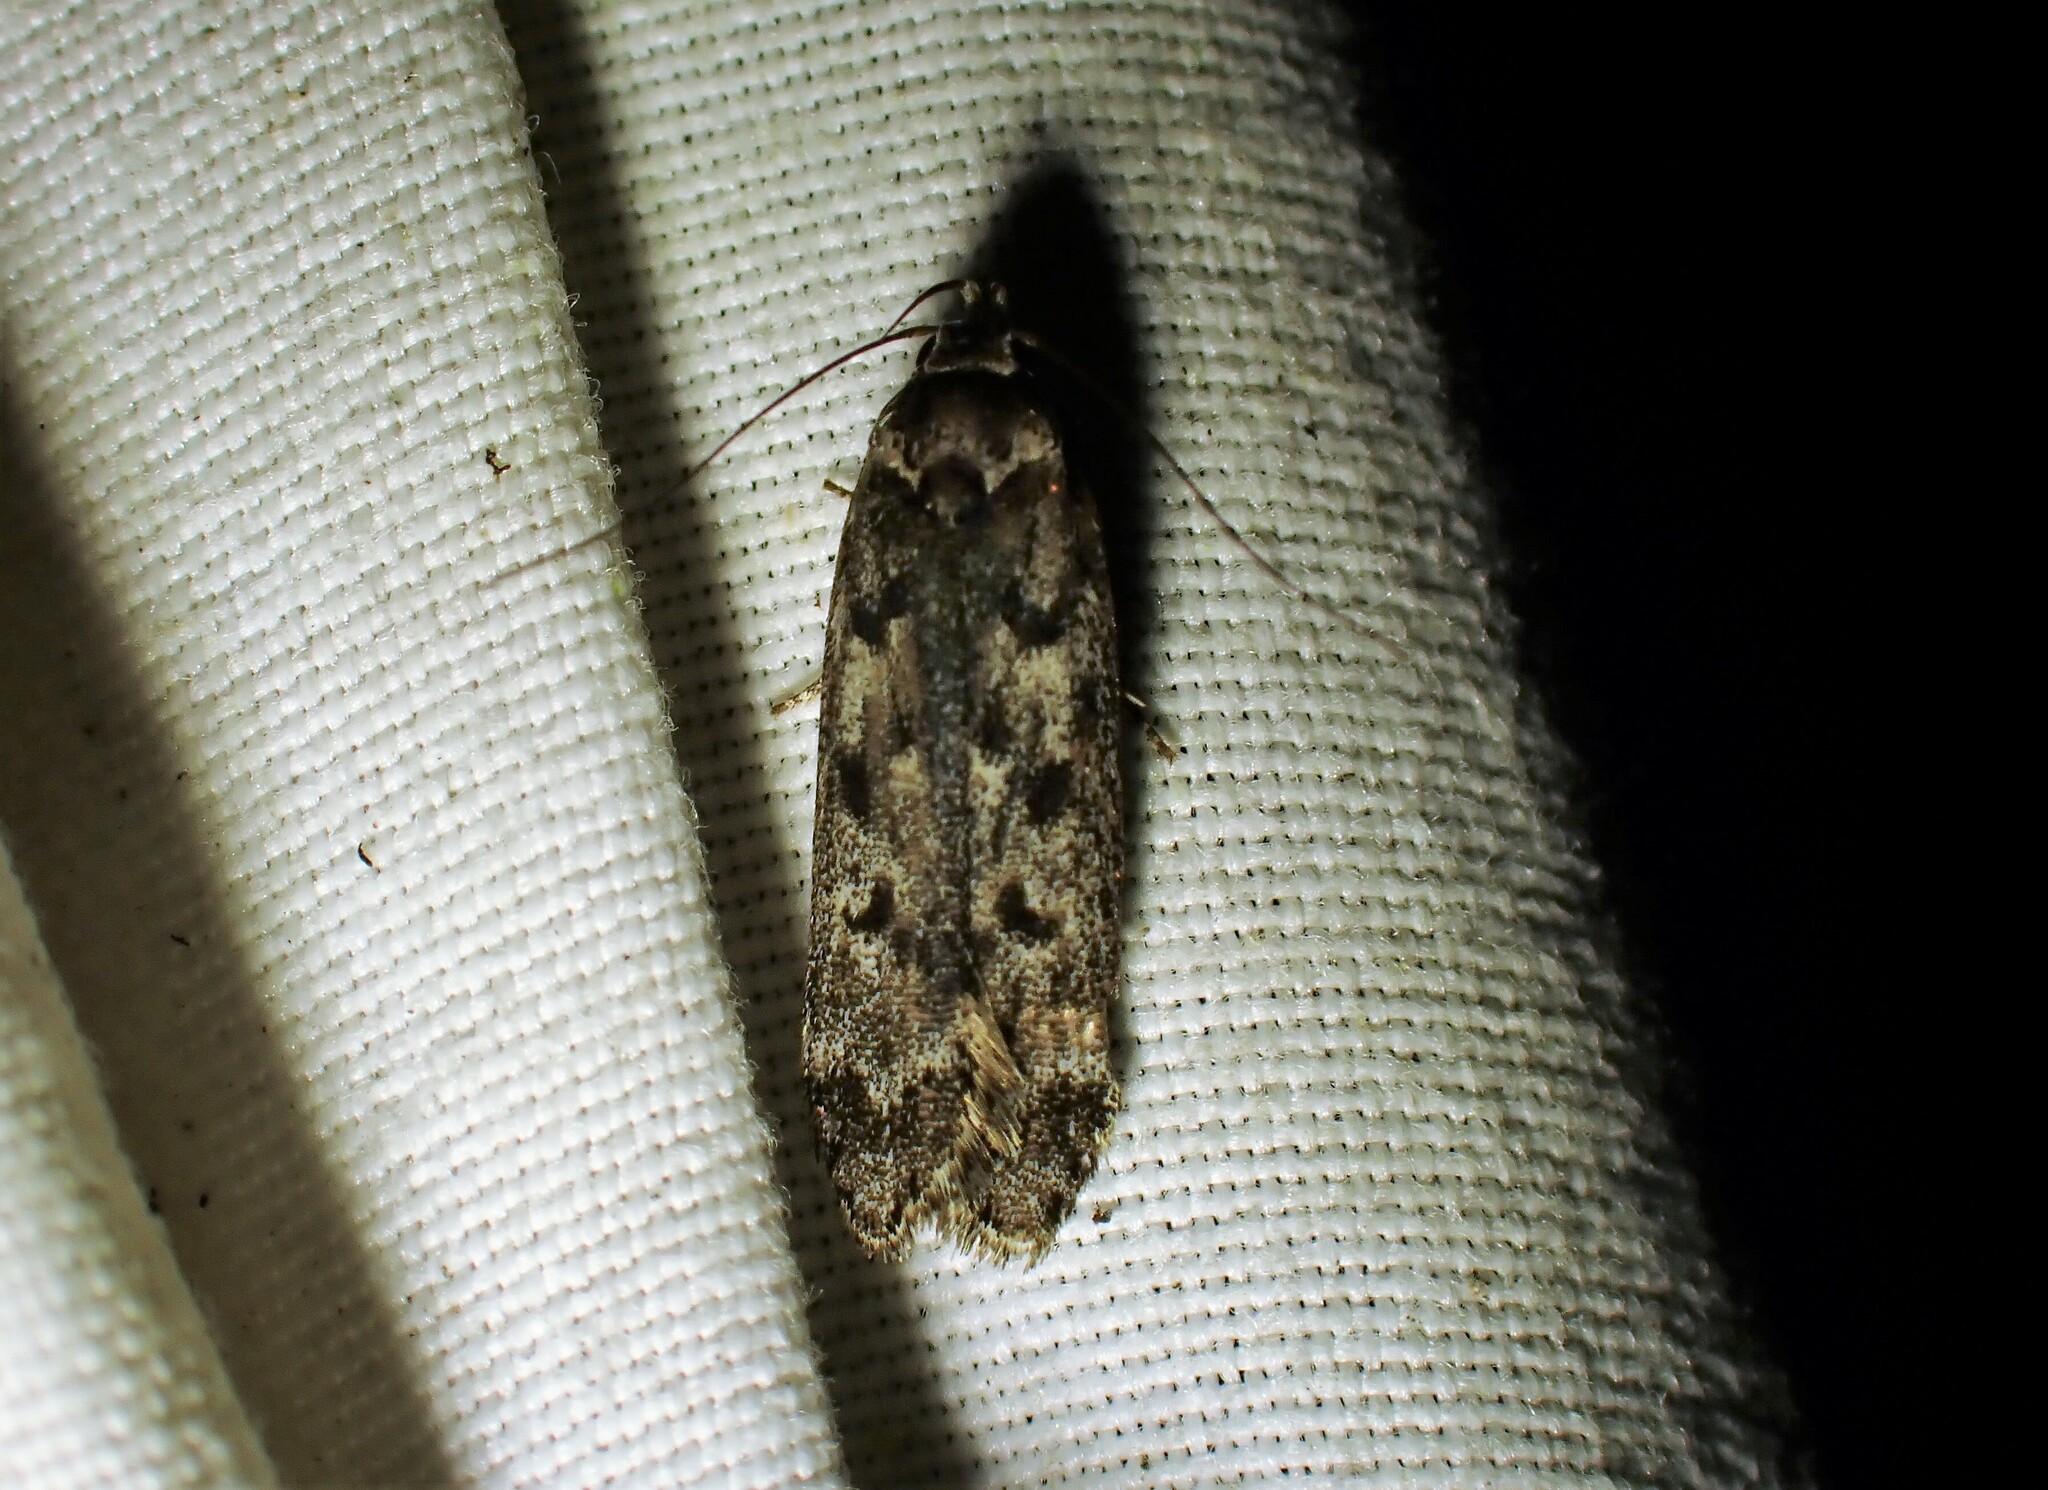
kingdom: Animalia
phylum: Arthropoda
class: Insecta
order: Lepidoptera
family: Gelechiidae
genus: Anacampsis
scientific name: Anacampsis niveopulvella
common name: Pale-headed aspen leafroller moth
